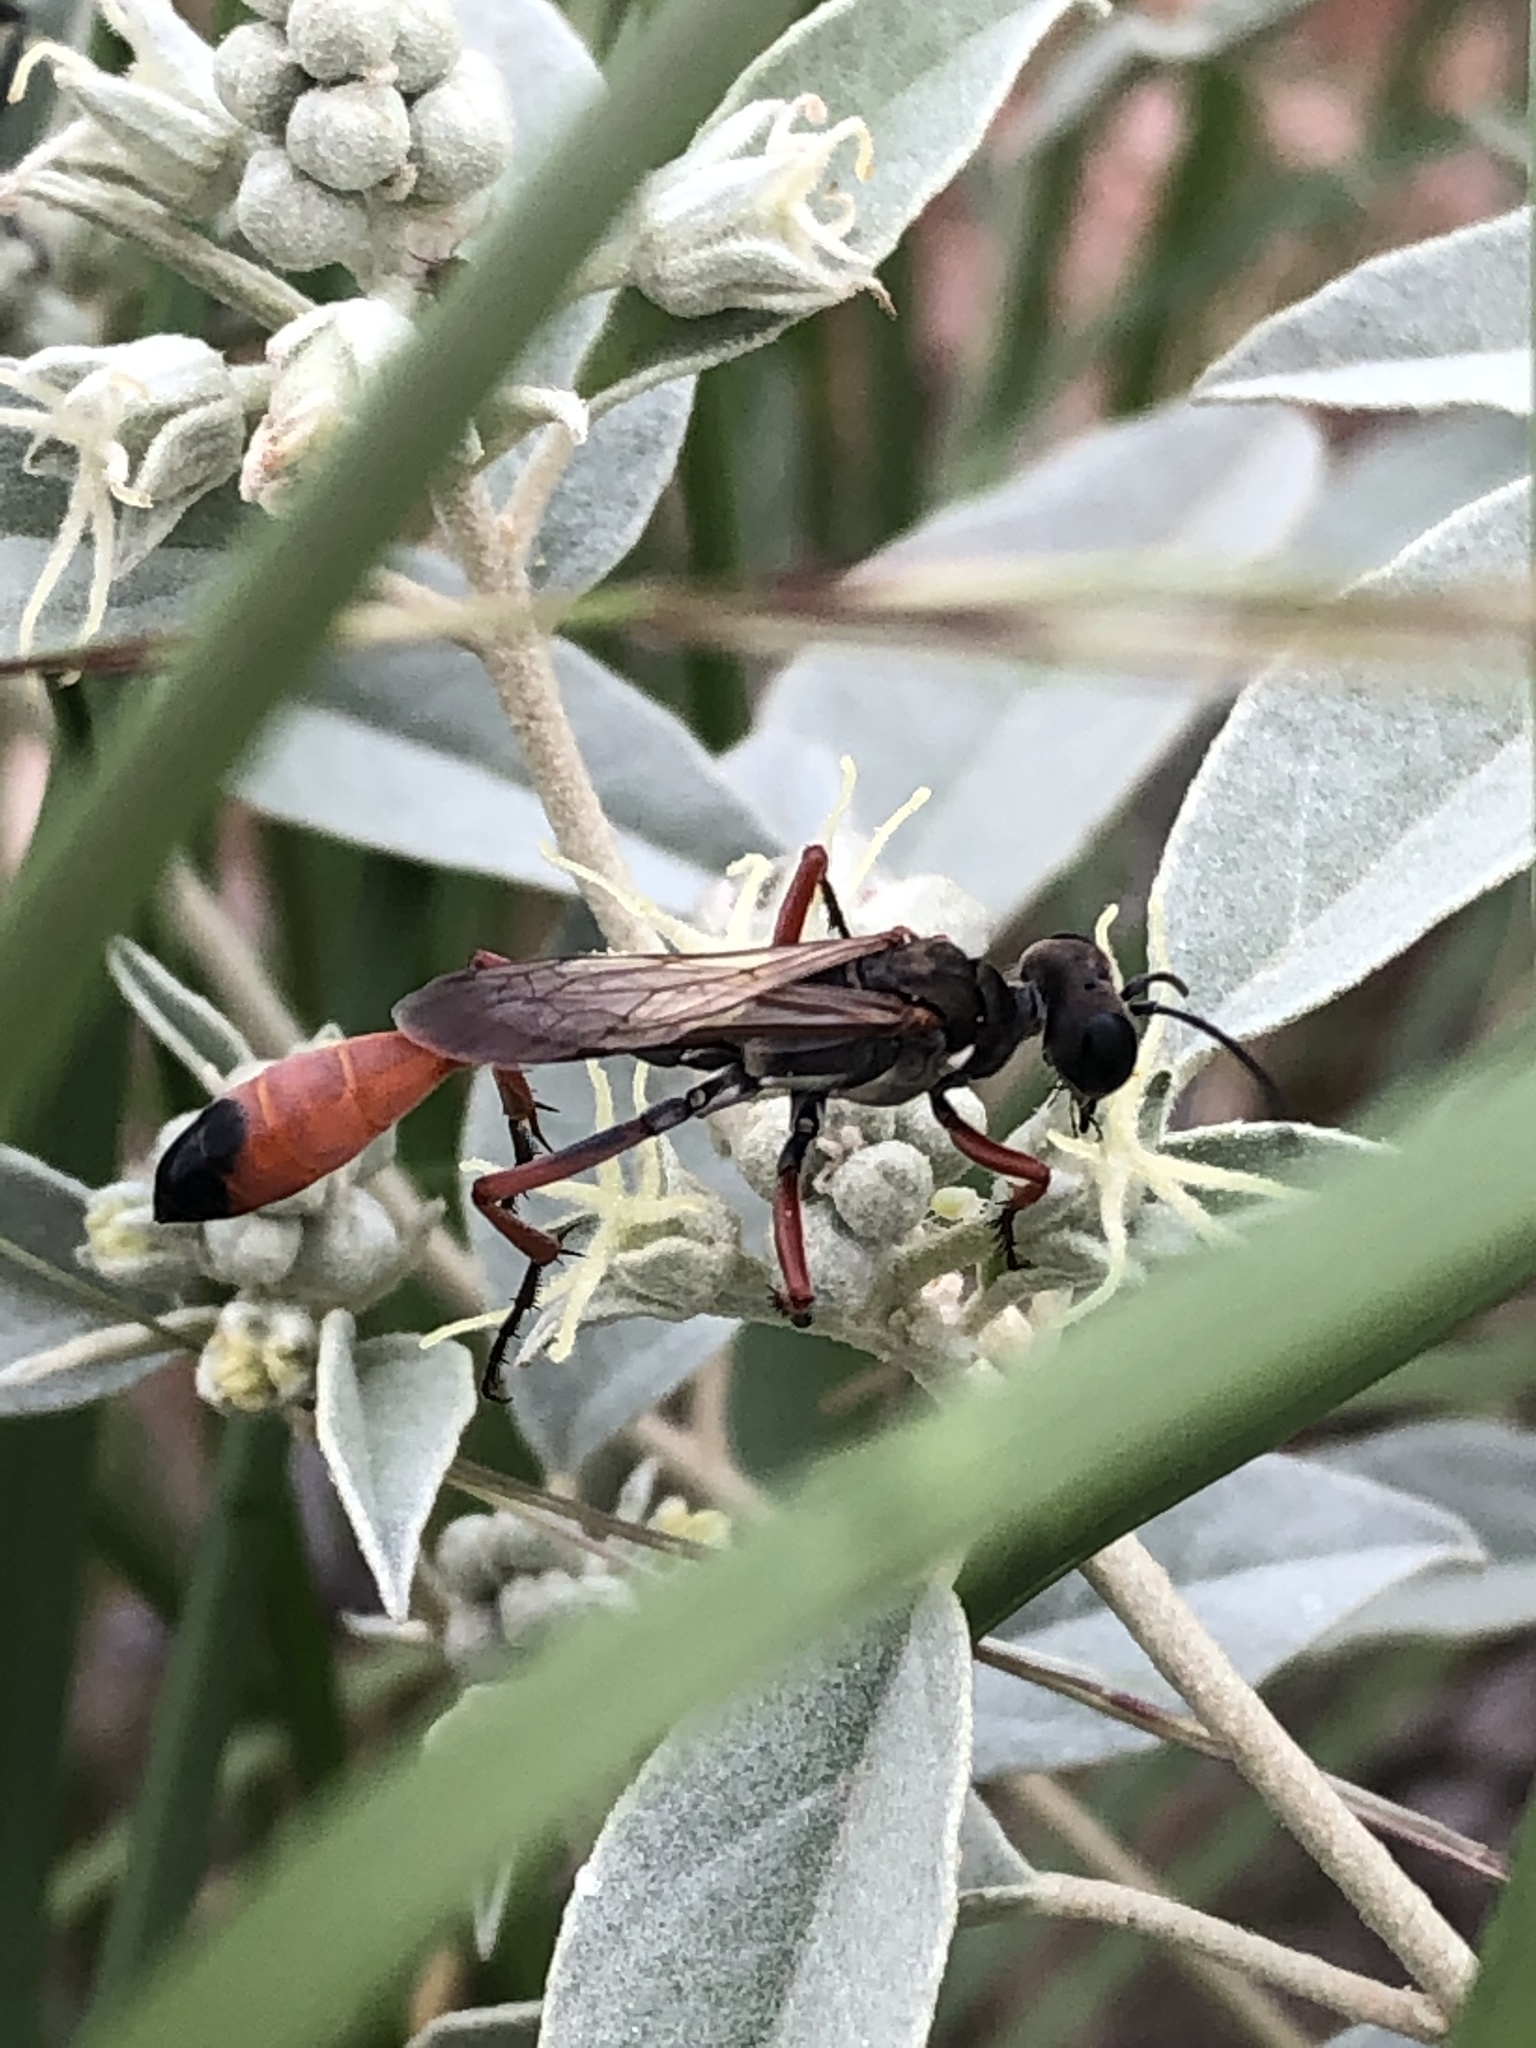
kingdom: Animalia
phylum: Arthropoda
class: Insecta
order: Hymenoptera
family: Sphecidae
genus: Ammophila
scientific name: Ammophila
